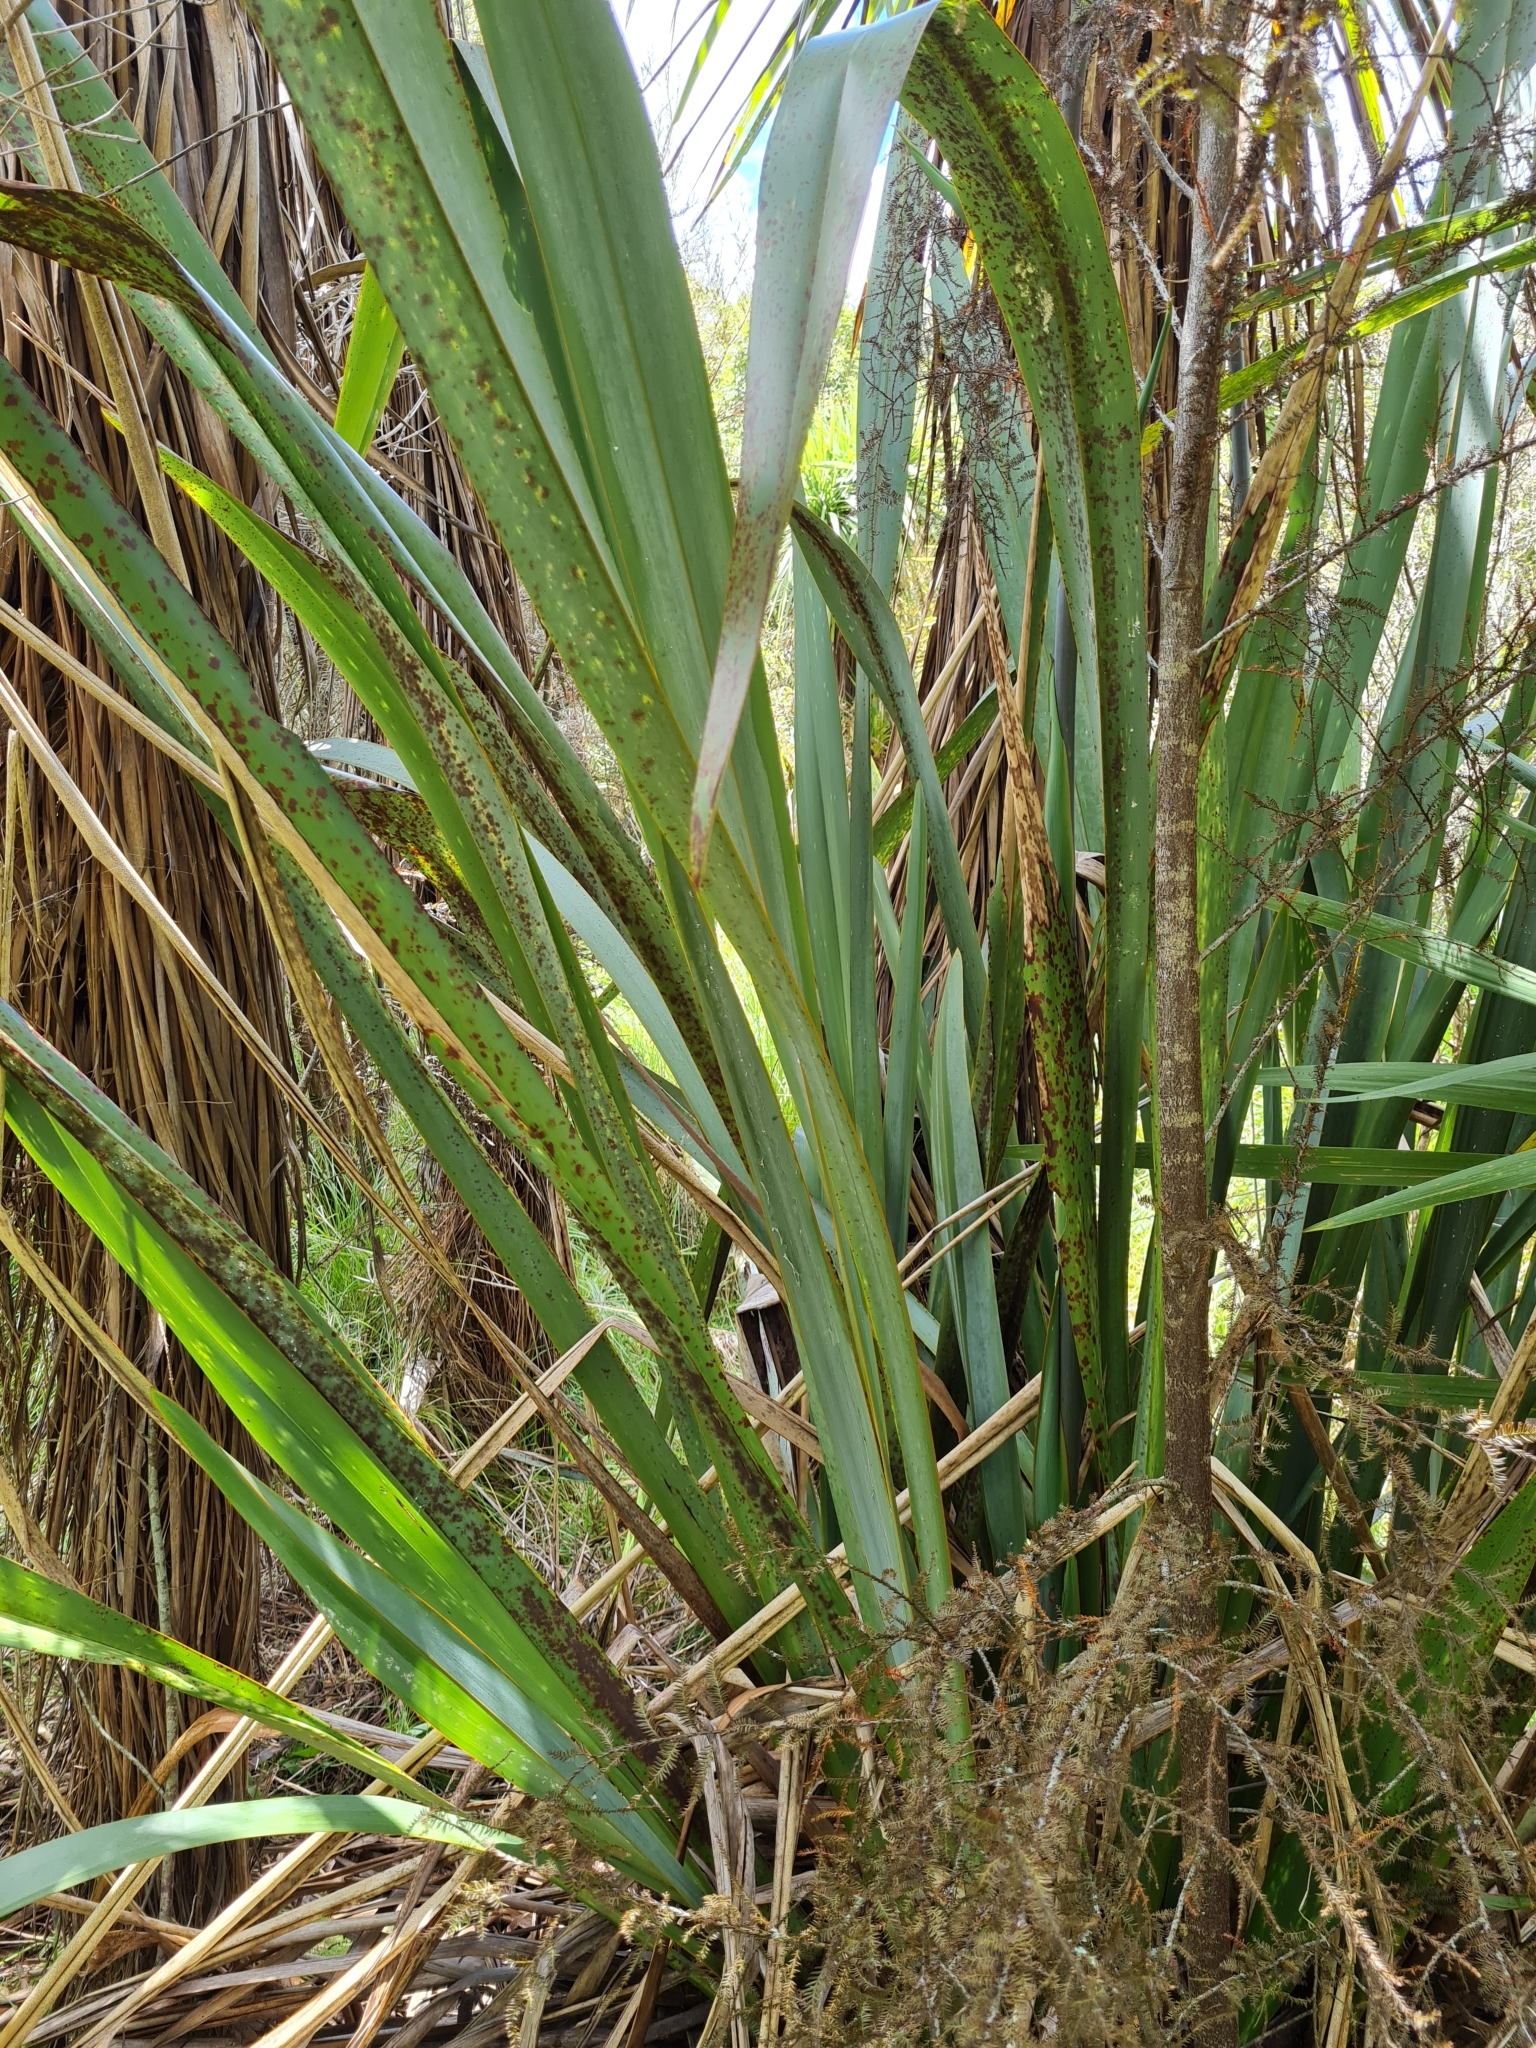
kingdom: Plantae
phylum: Tracheophyta
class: Liliopsida
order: Asparagales
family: Asphodelaceae
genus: Phormium
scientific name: Phormium tenax
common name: New zealand flax
